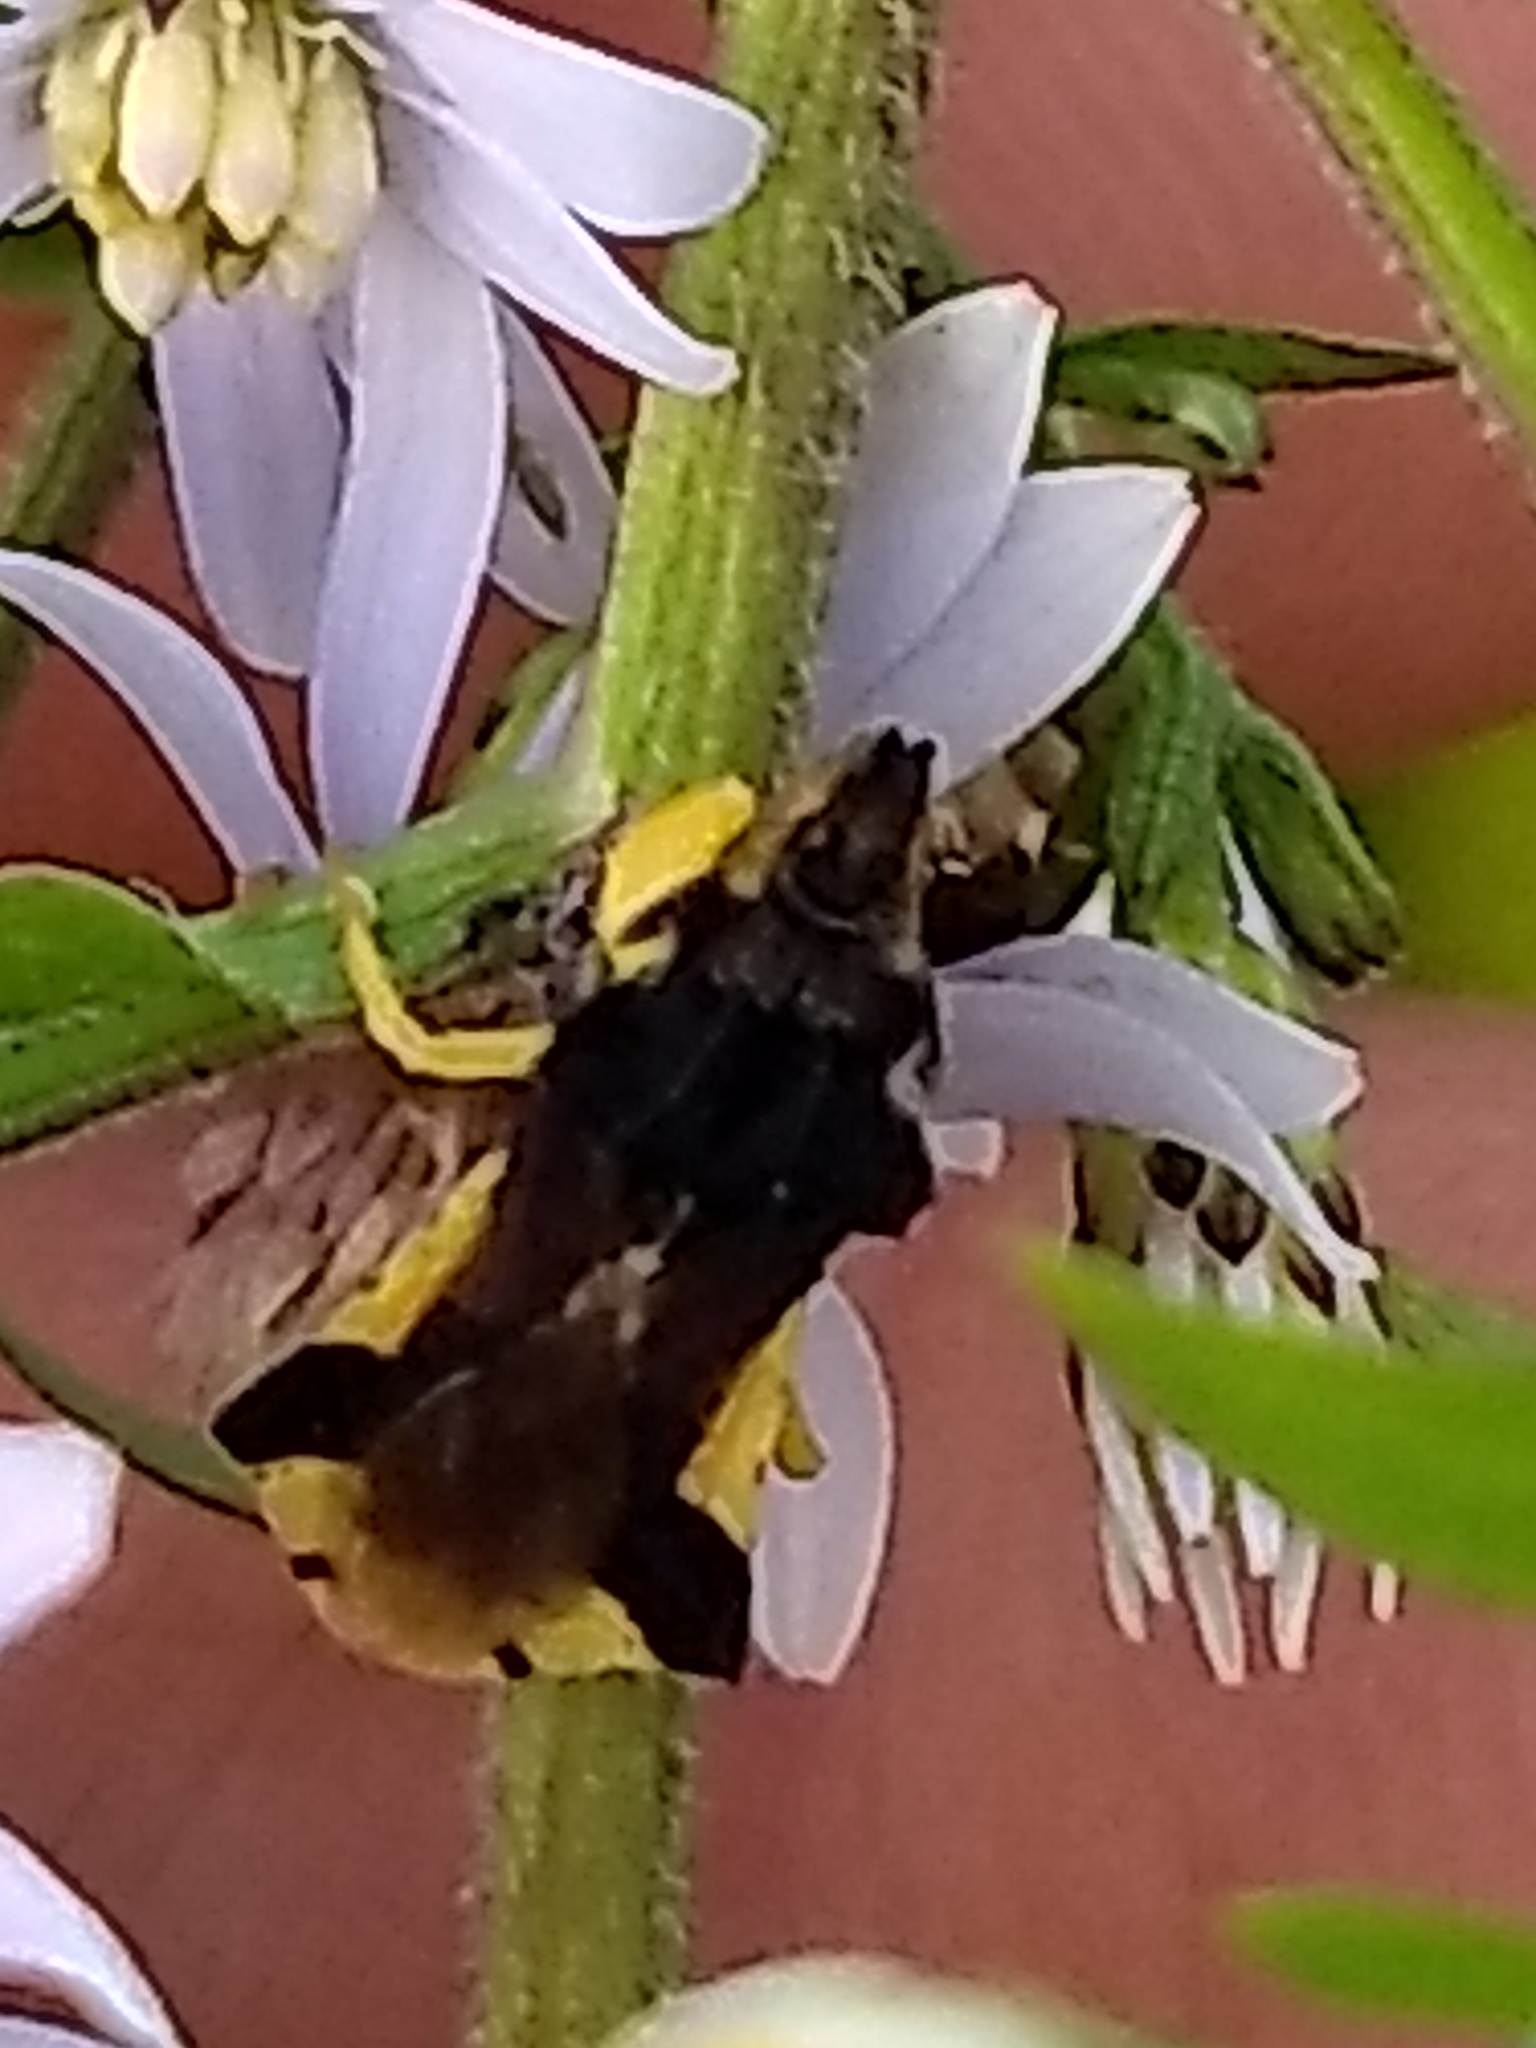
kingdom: Animalia
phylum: Arthropoda
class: Insecta
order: Hemiptera
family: Reduviidae
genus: Phymata
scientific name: Phymata pennsylvanica
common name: Pennsylvania ambush bug
